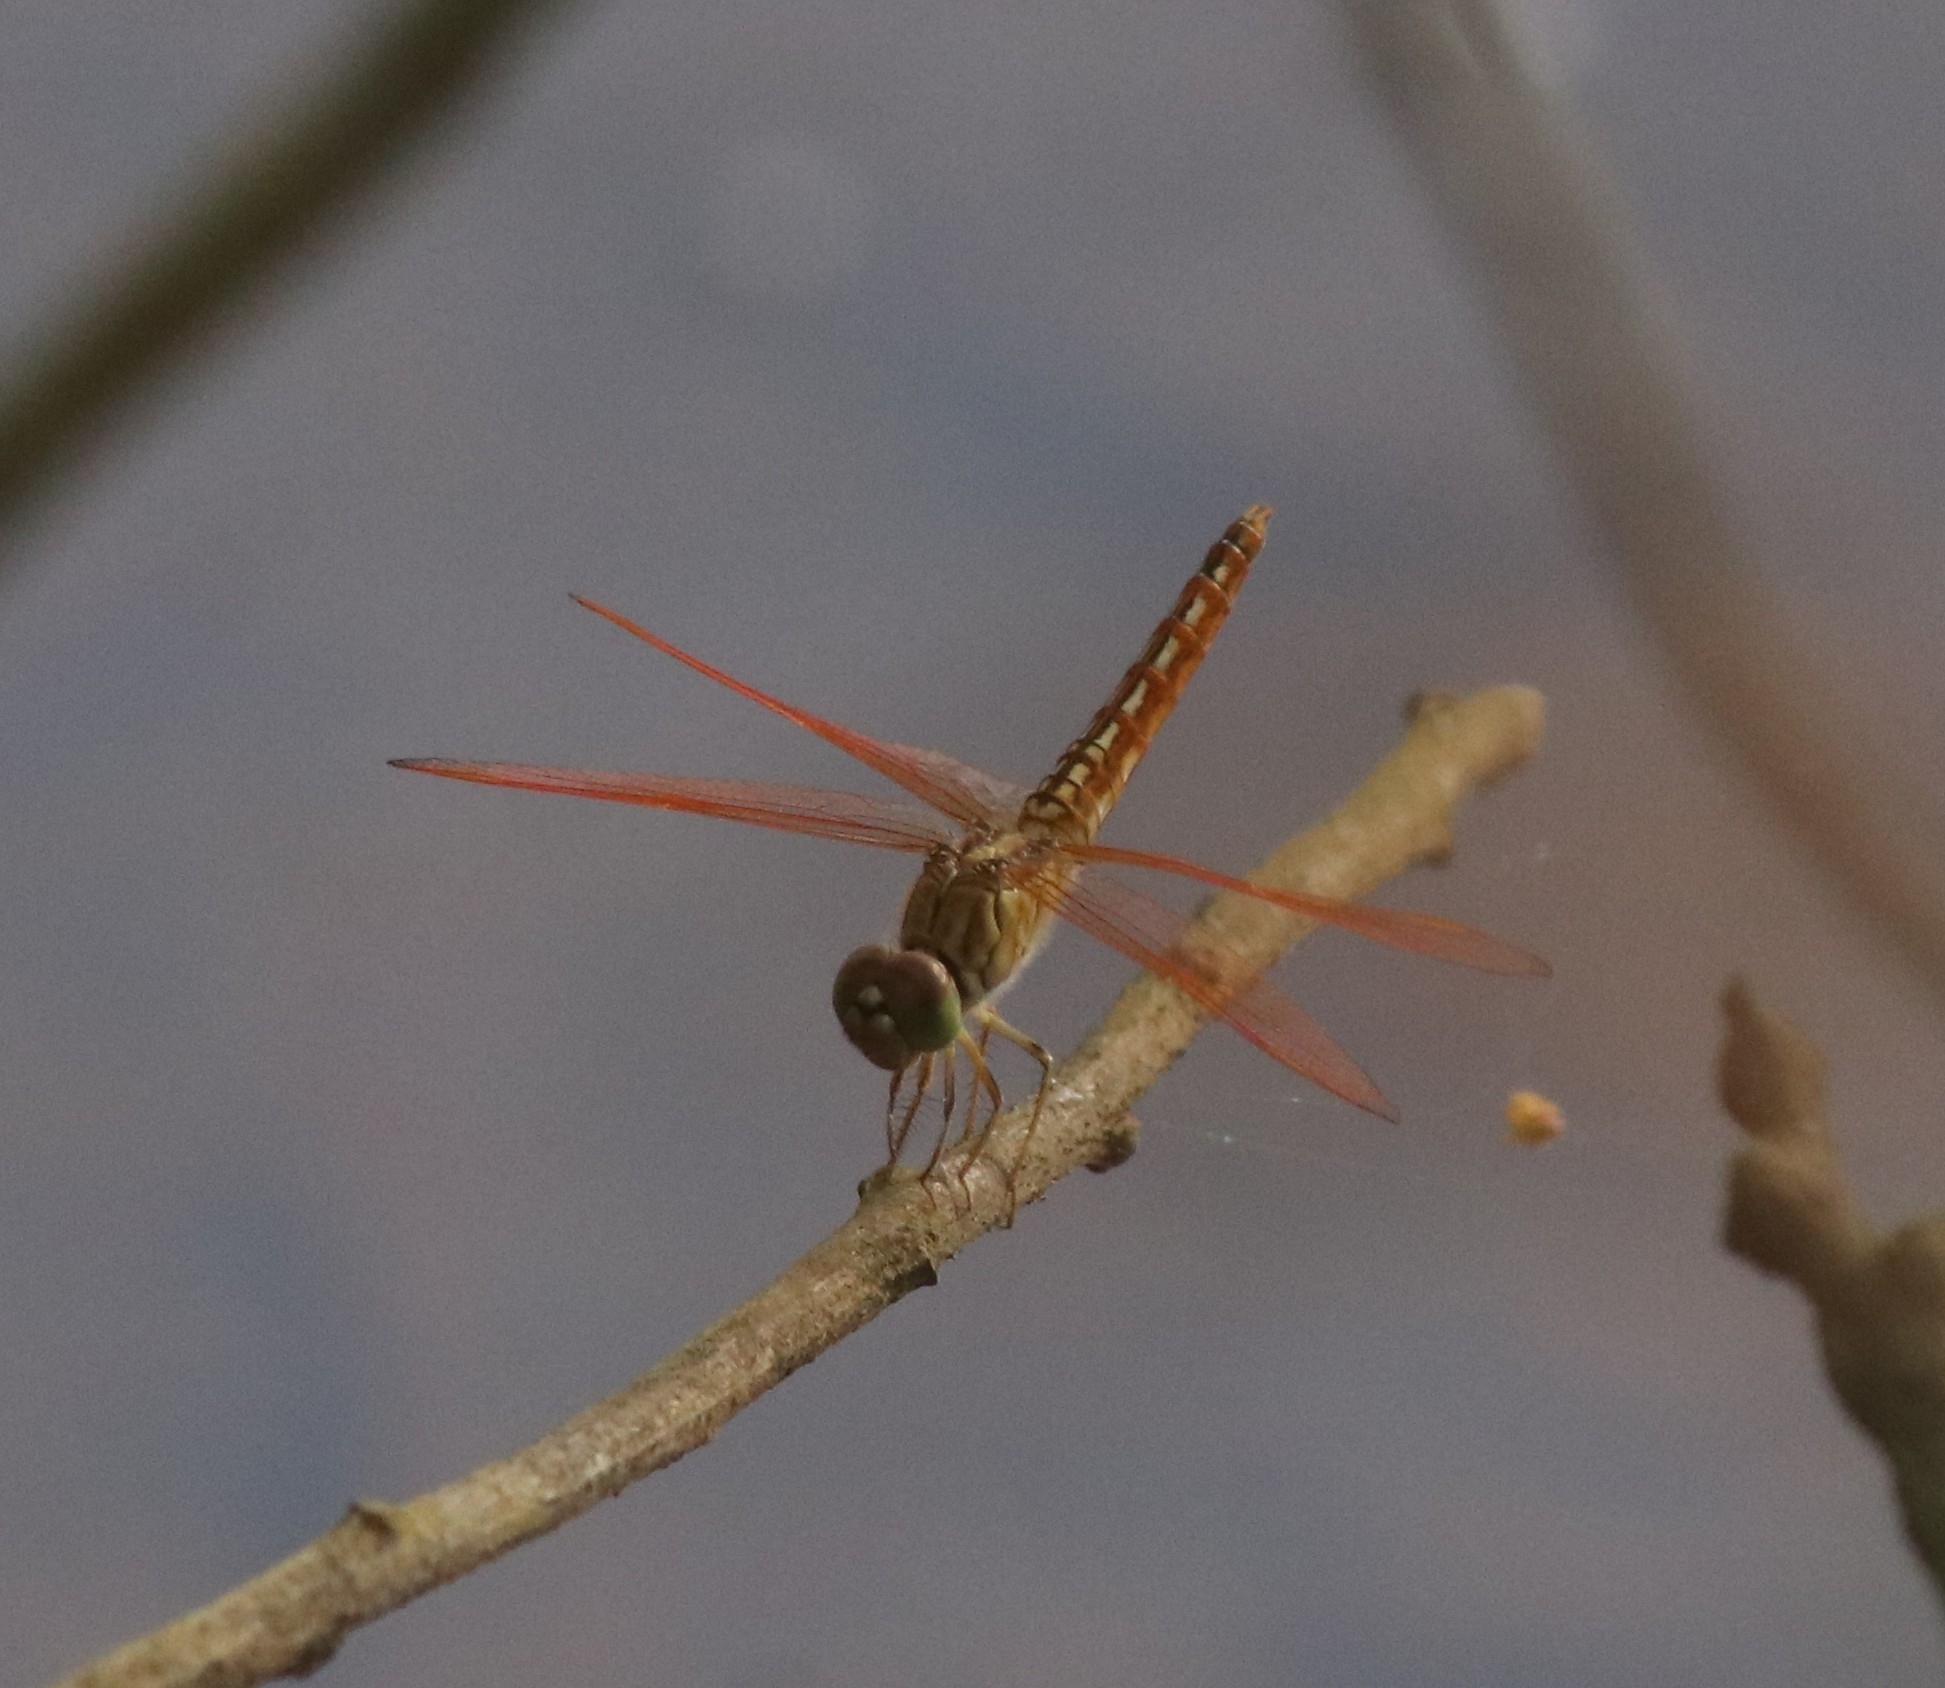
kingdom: Animalia
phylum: Arthropoda
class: Insecta
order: Odonata
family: Libellulidae
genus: Brachythemis
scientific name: Brachythemis contaminata
